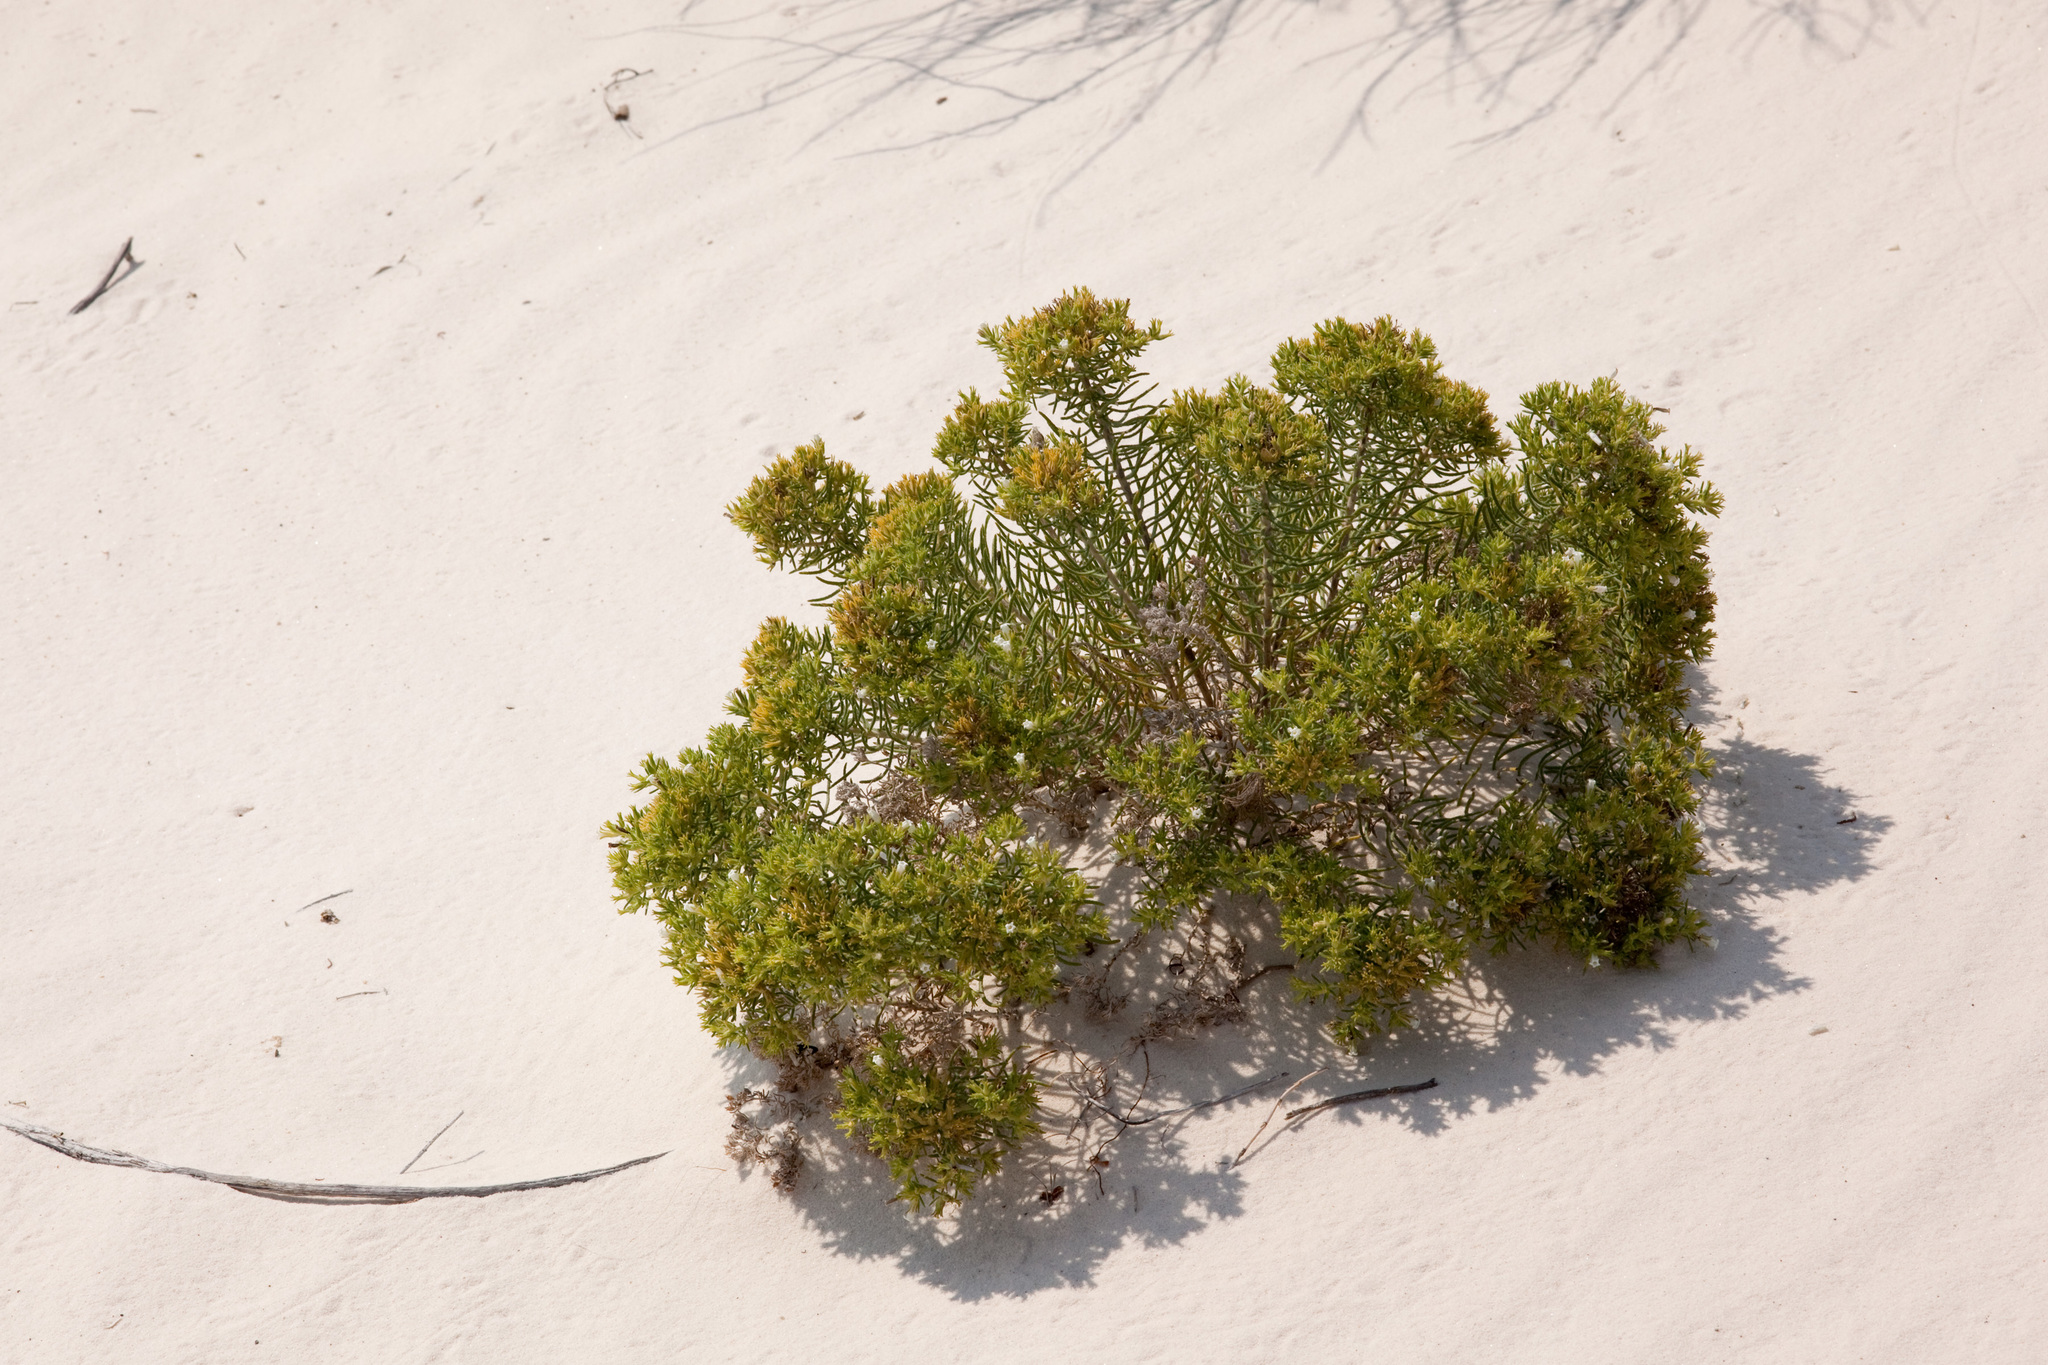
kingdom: Plantae
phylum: Tracheophyta
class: Magnoliopsida
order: Boraginales
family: Namaceae
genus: Andropus
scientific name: Andropus carnosus
